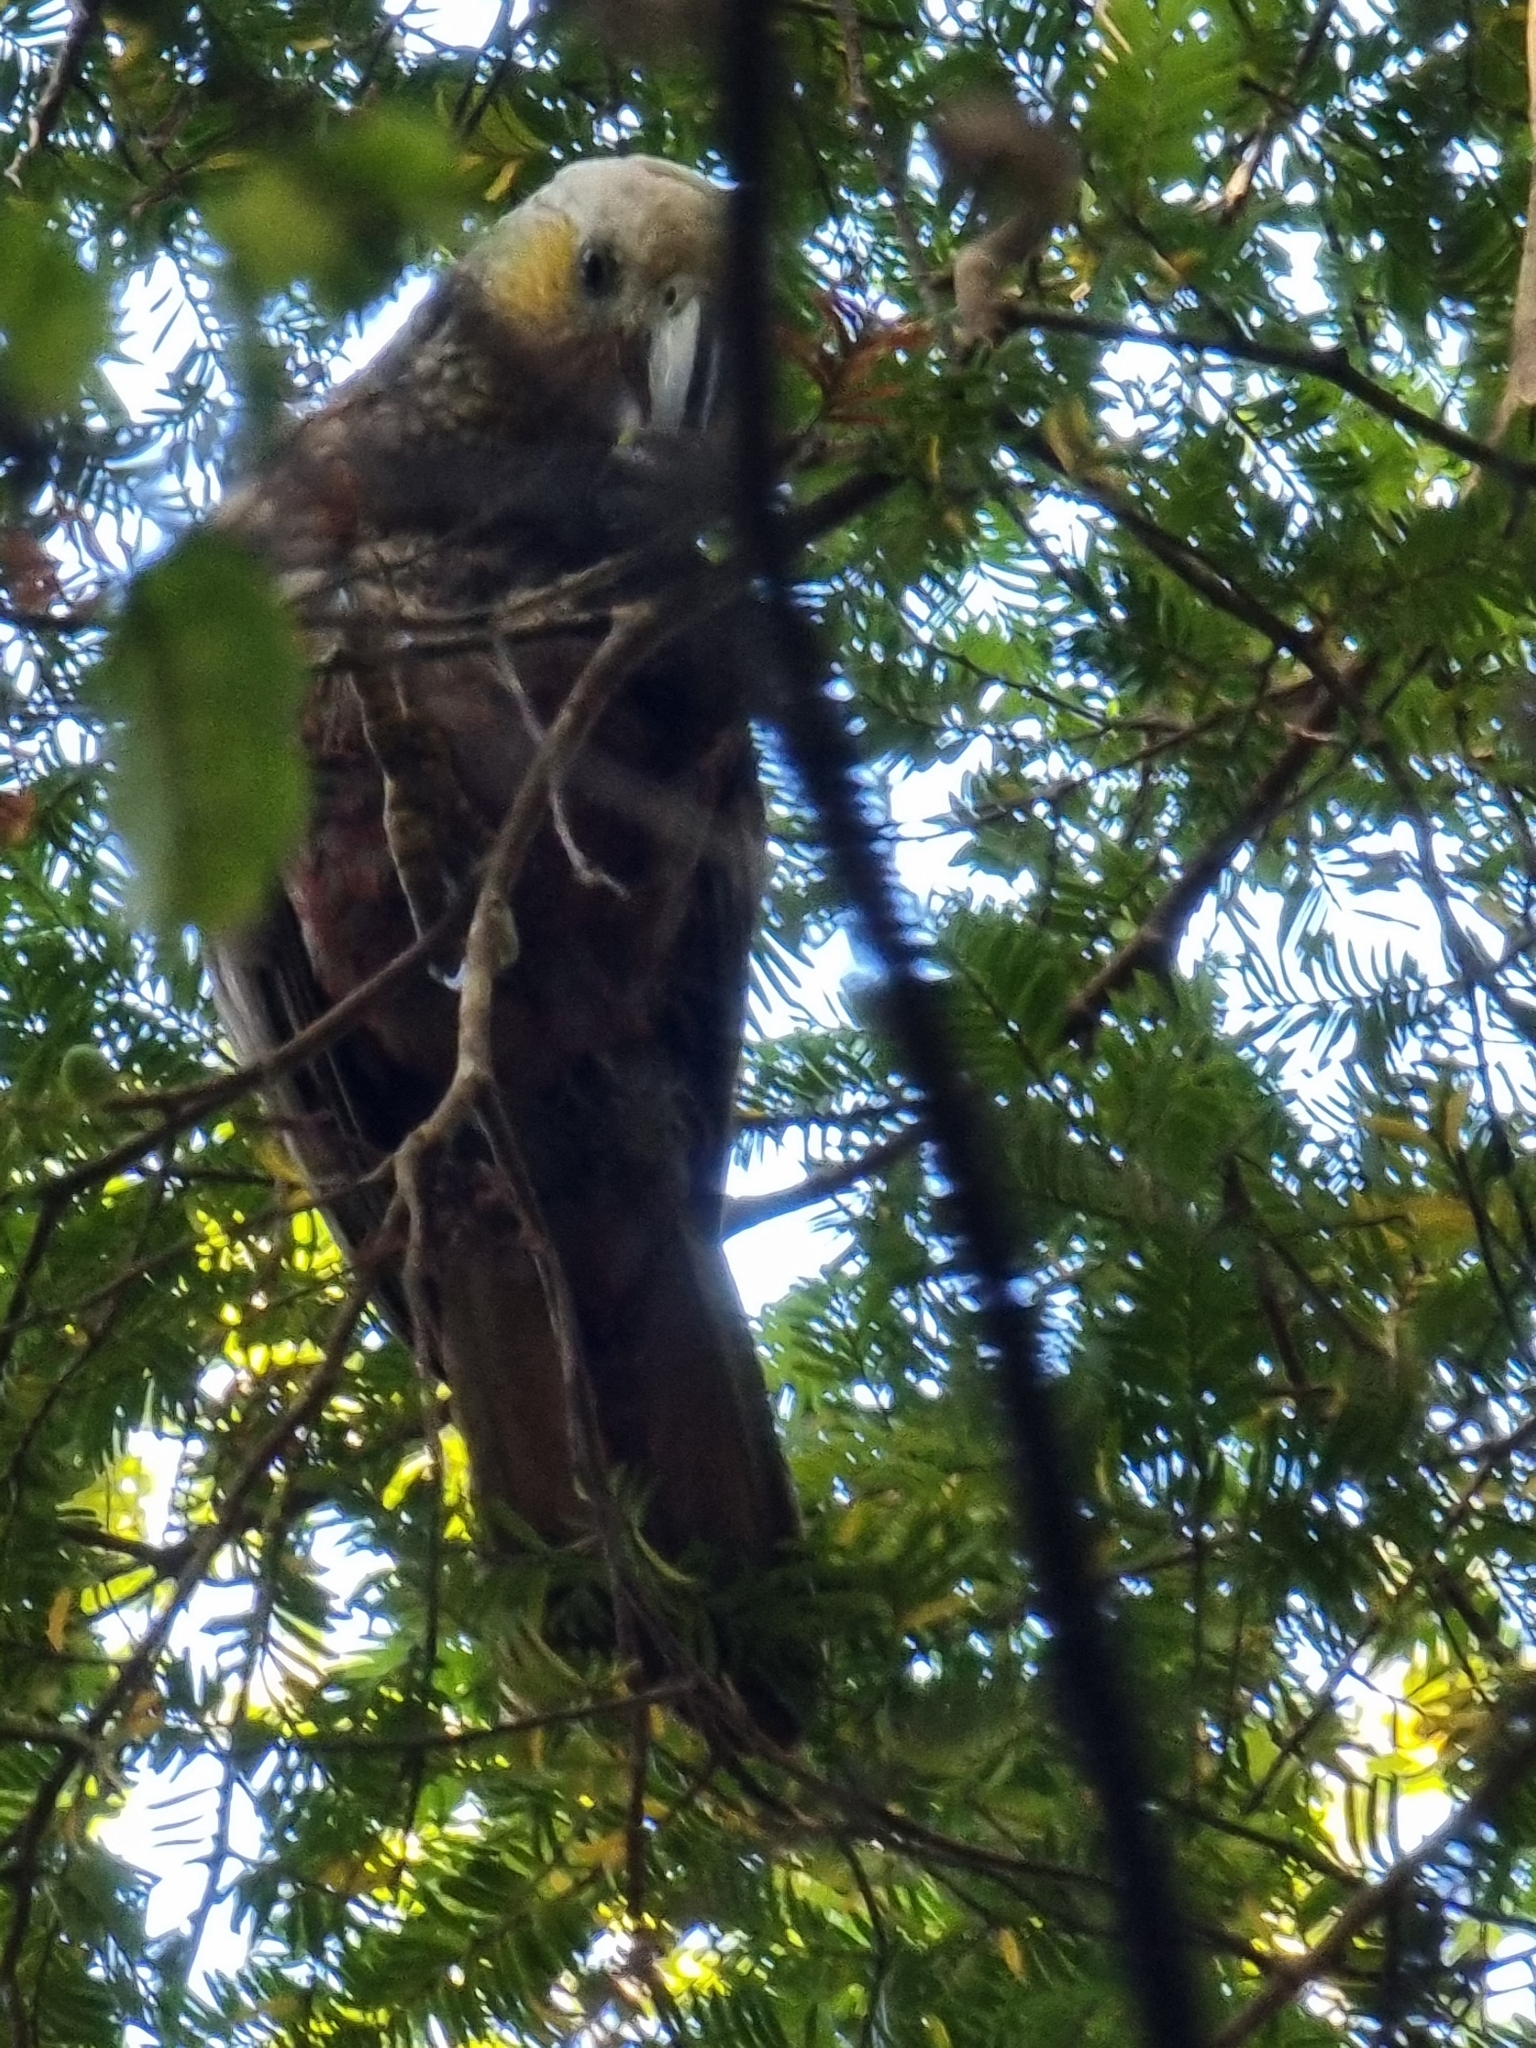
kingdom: Animalia
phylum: Chordata
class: Aves
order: Psittaciformes
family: Psittacidae
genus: Nestor
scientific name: Nestor meridionalis
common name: New zealand kaka
